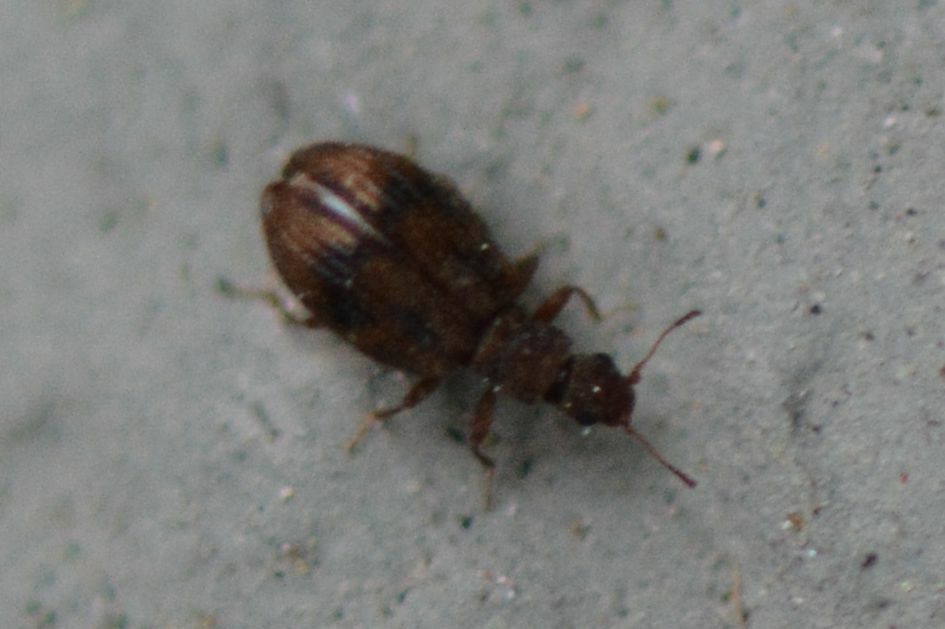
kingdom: Animalia
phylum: Arthropoda
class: Insecta
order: Coleoptera
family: Latridiidae
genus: Cartodere
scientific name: Cartodere bifasciata
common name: Plaster beetle
